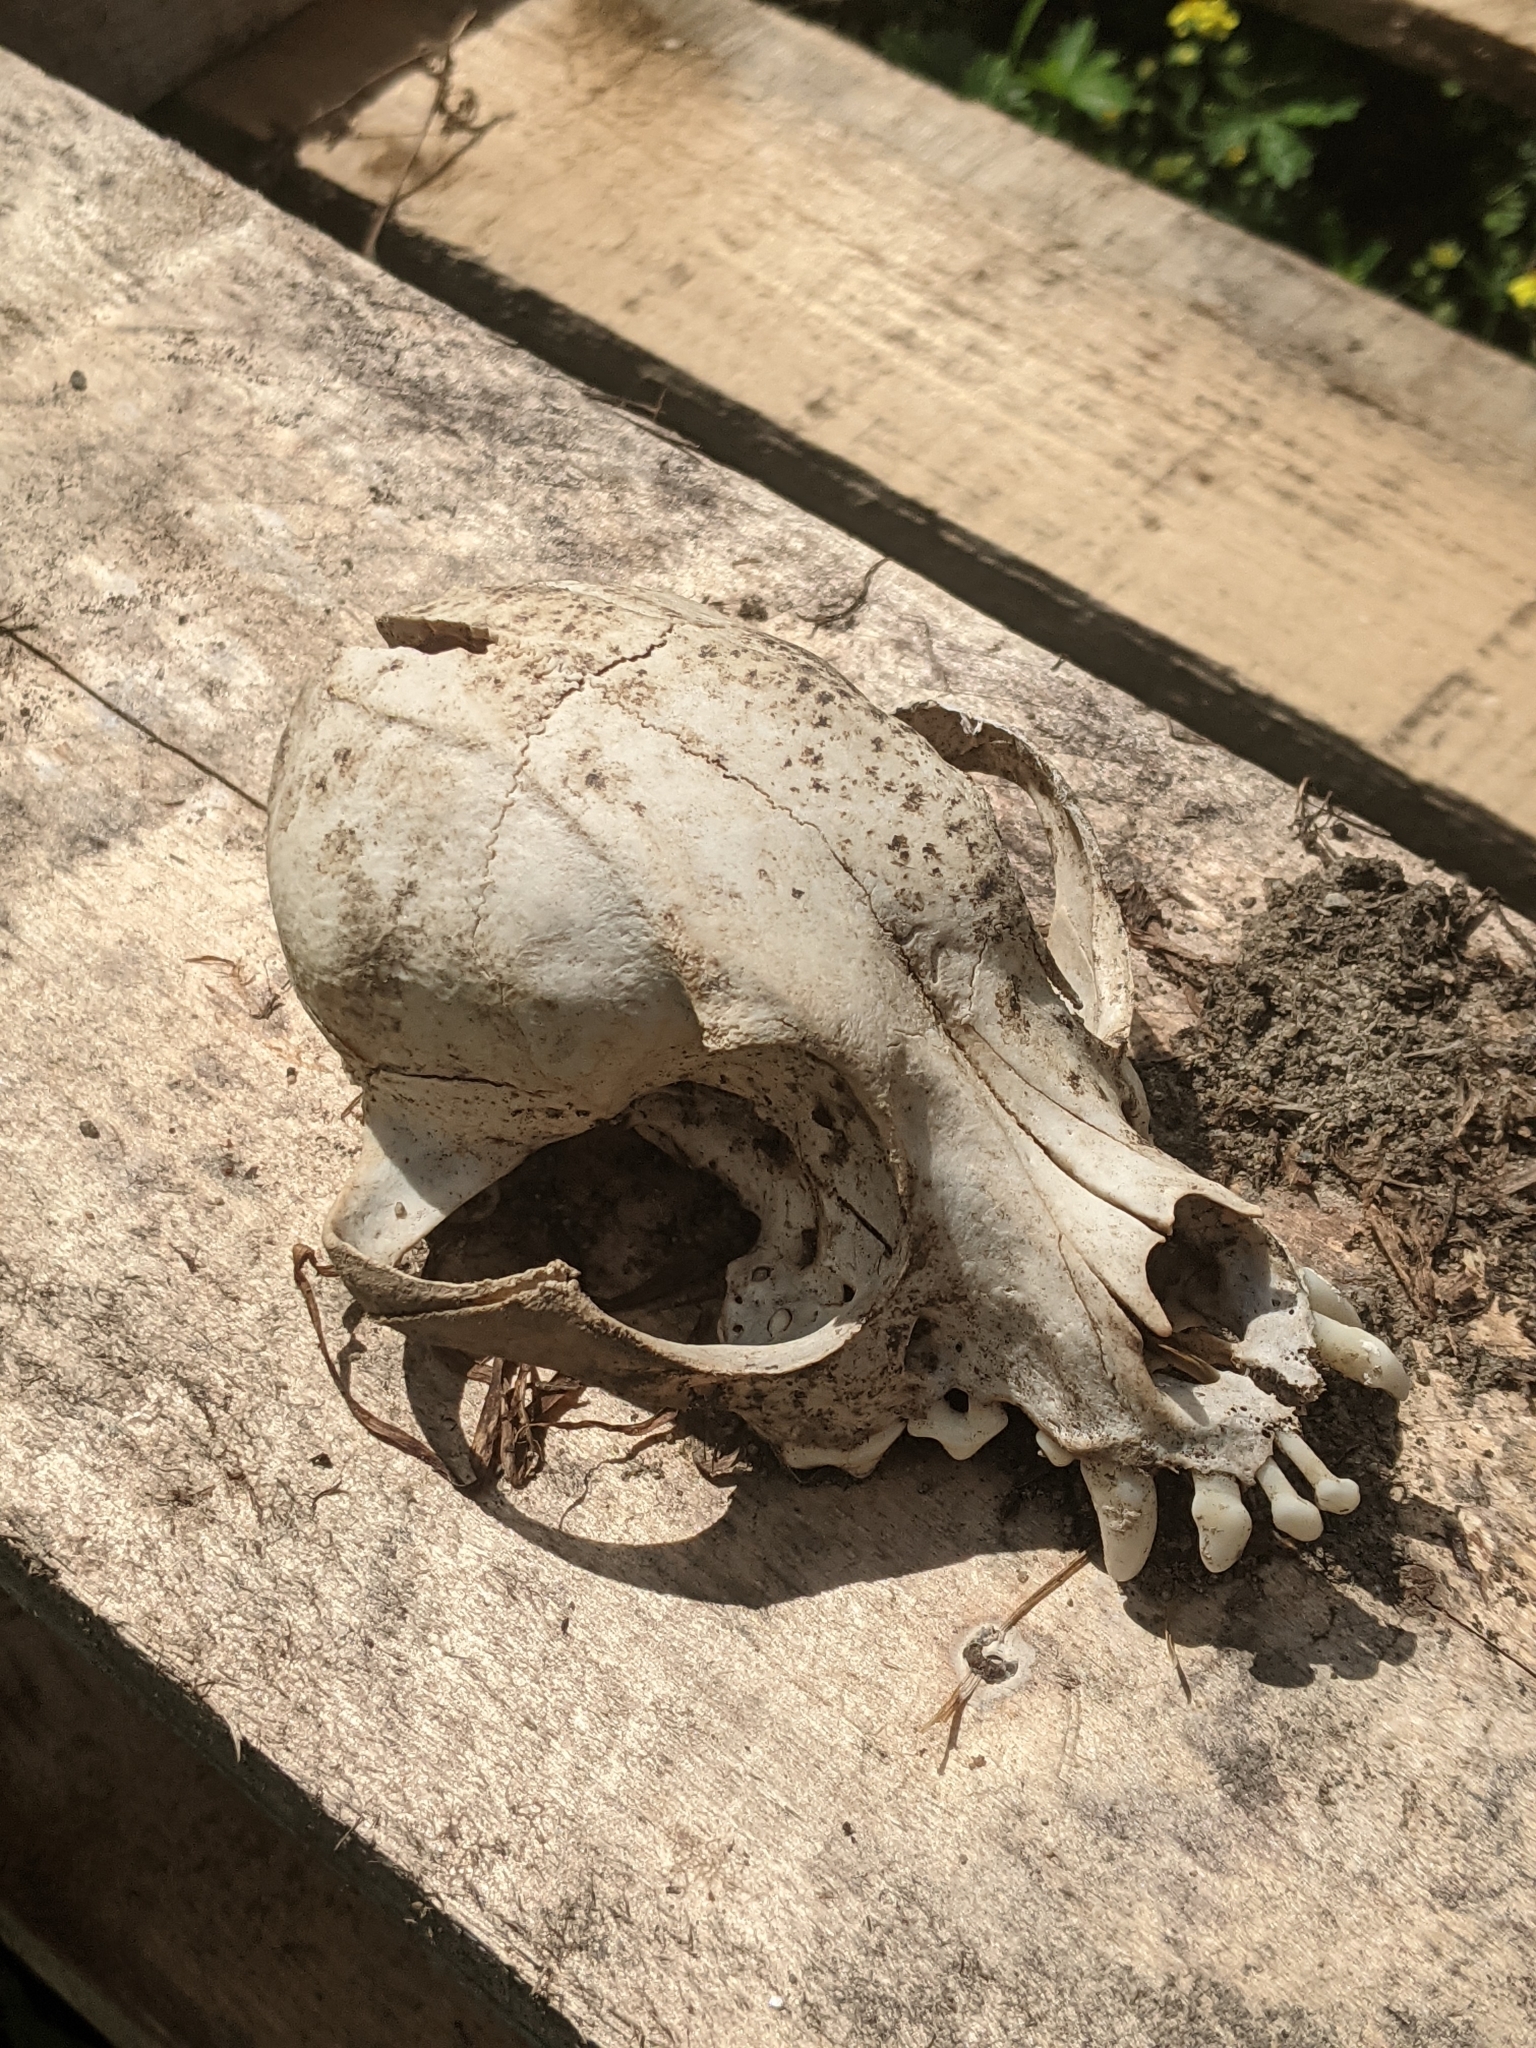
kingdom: Animalia
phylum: Chordata
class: Mammalia
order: Carnivora
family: Canidae
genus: Canis
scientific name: Canis lupus
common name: Gray wolf
